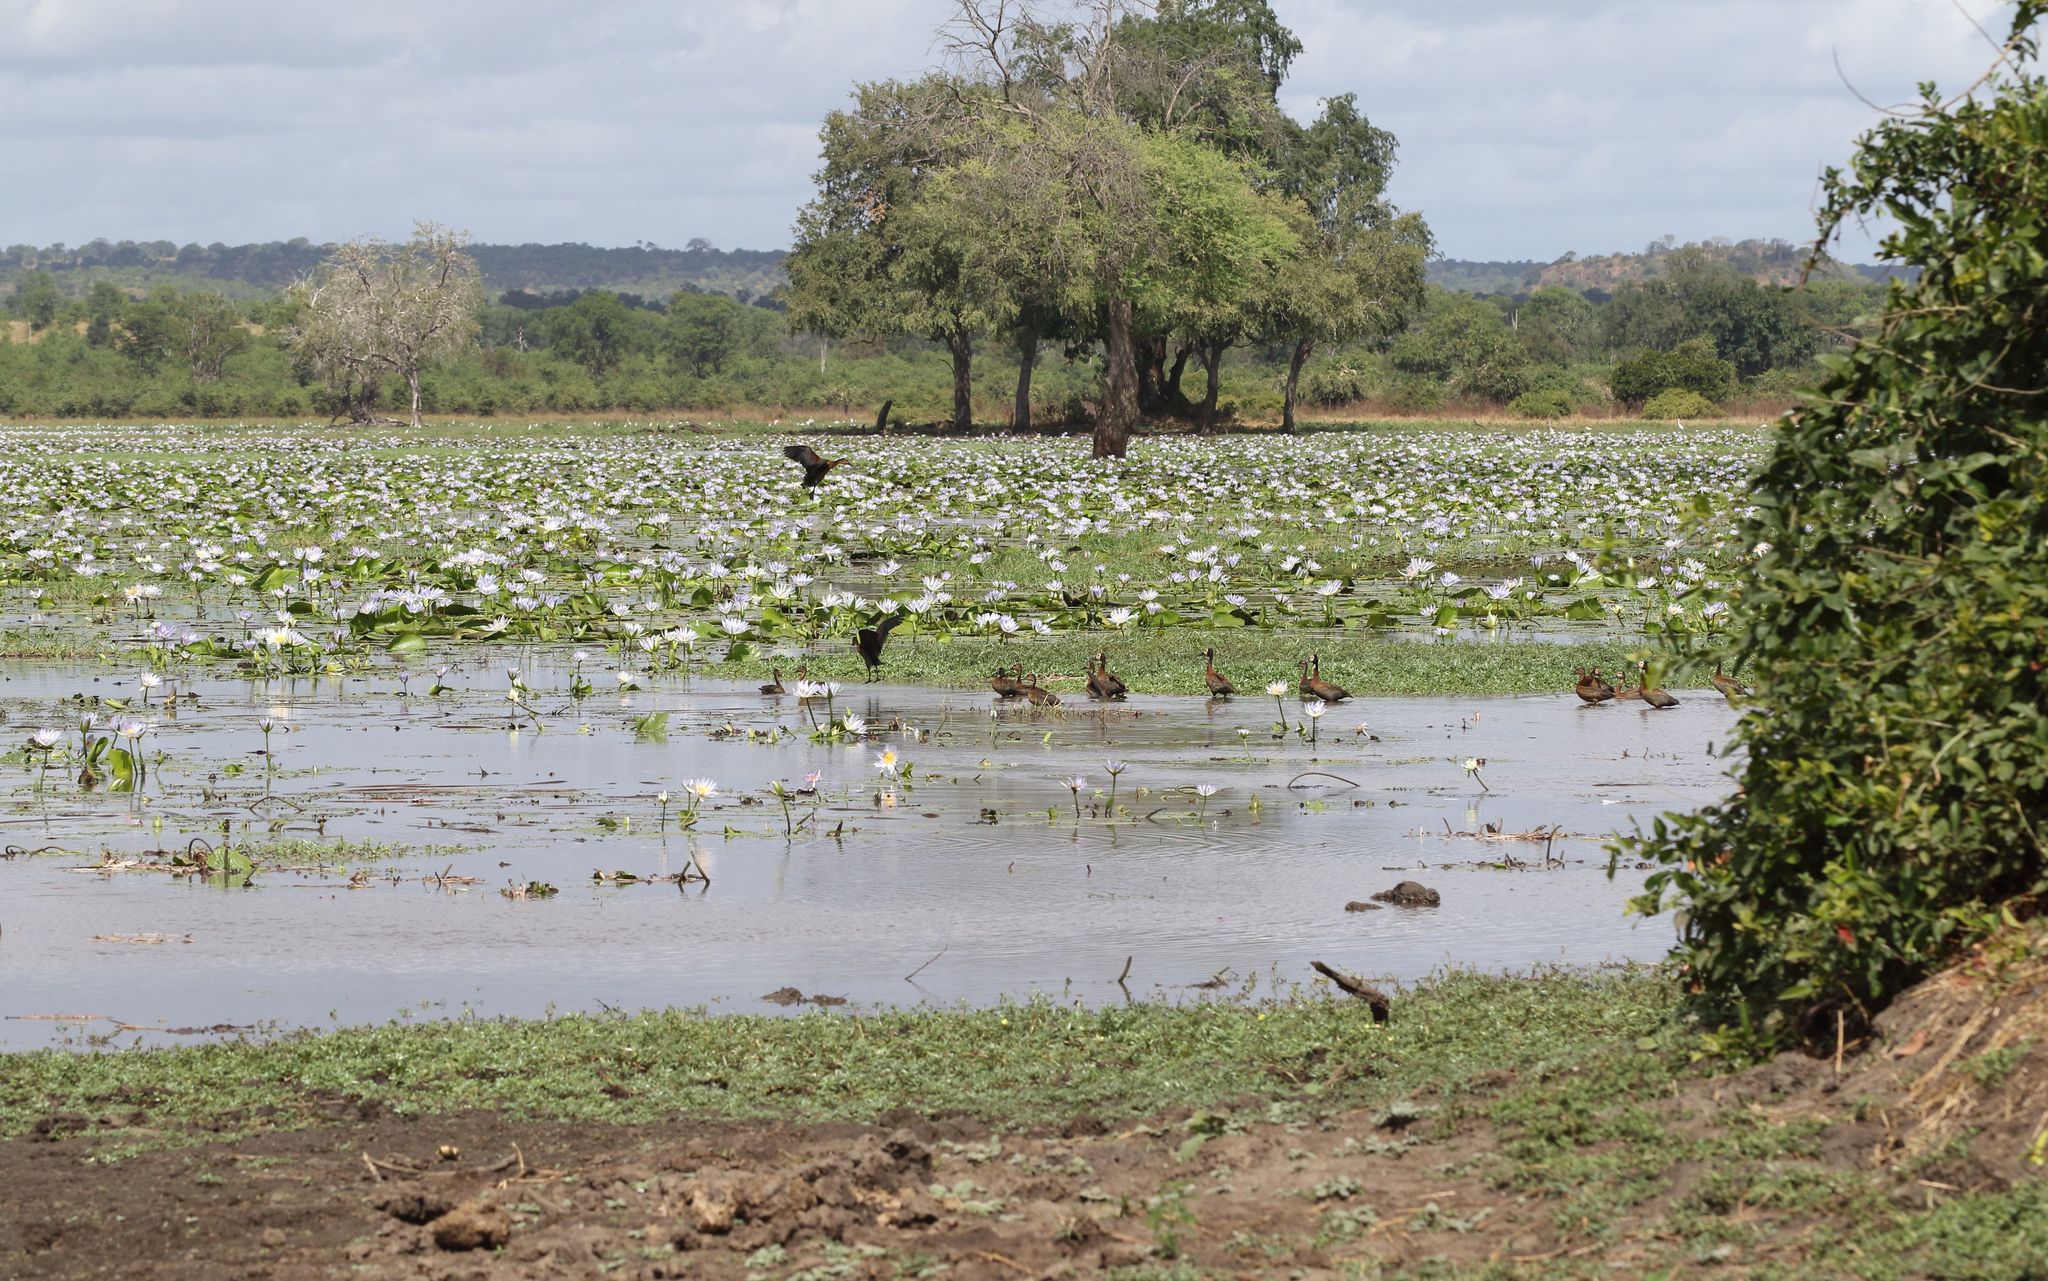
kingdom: Animalia
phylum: Chordata
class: Aves
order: Anseriformes
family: Anatidae
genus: Dendrocygna
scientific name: Dendrocygna viduata
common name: White-faced whistling duck
